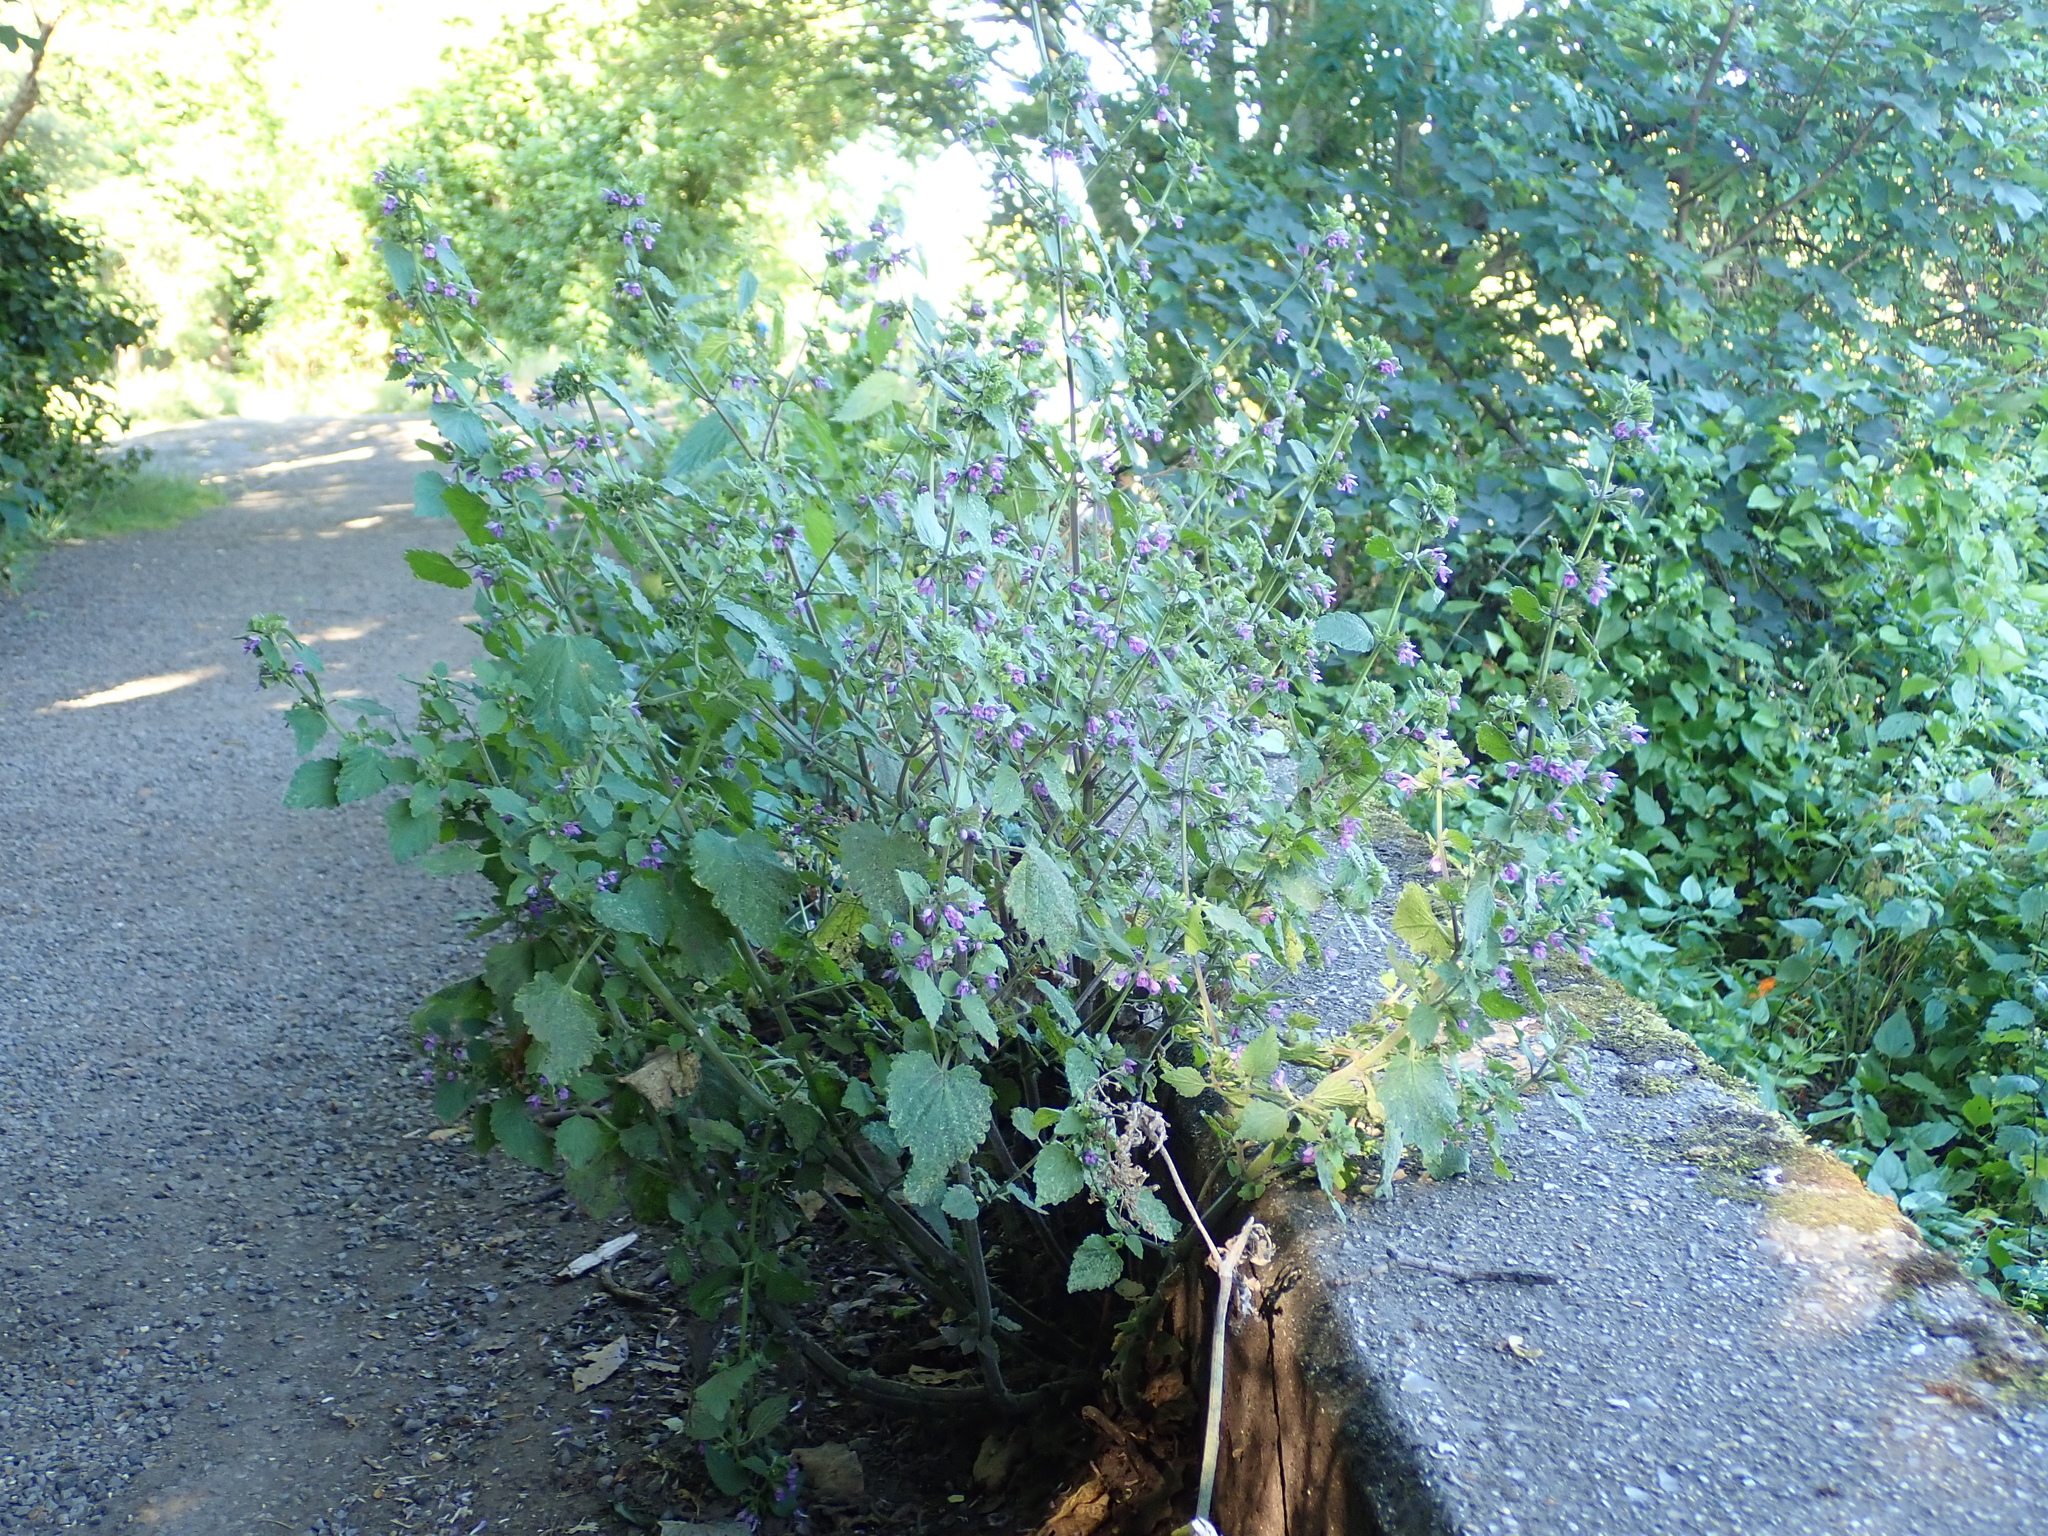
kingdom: Plantae
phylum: Tracheophyta
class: Magnoliopsida
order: Lamiales
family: Lamiaceae
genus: Ballota
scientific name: Ballota nigra
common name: Black horehound
